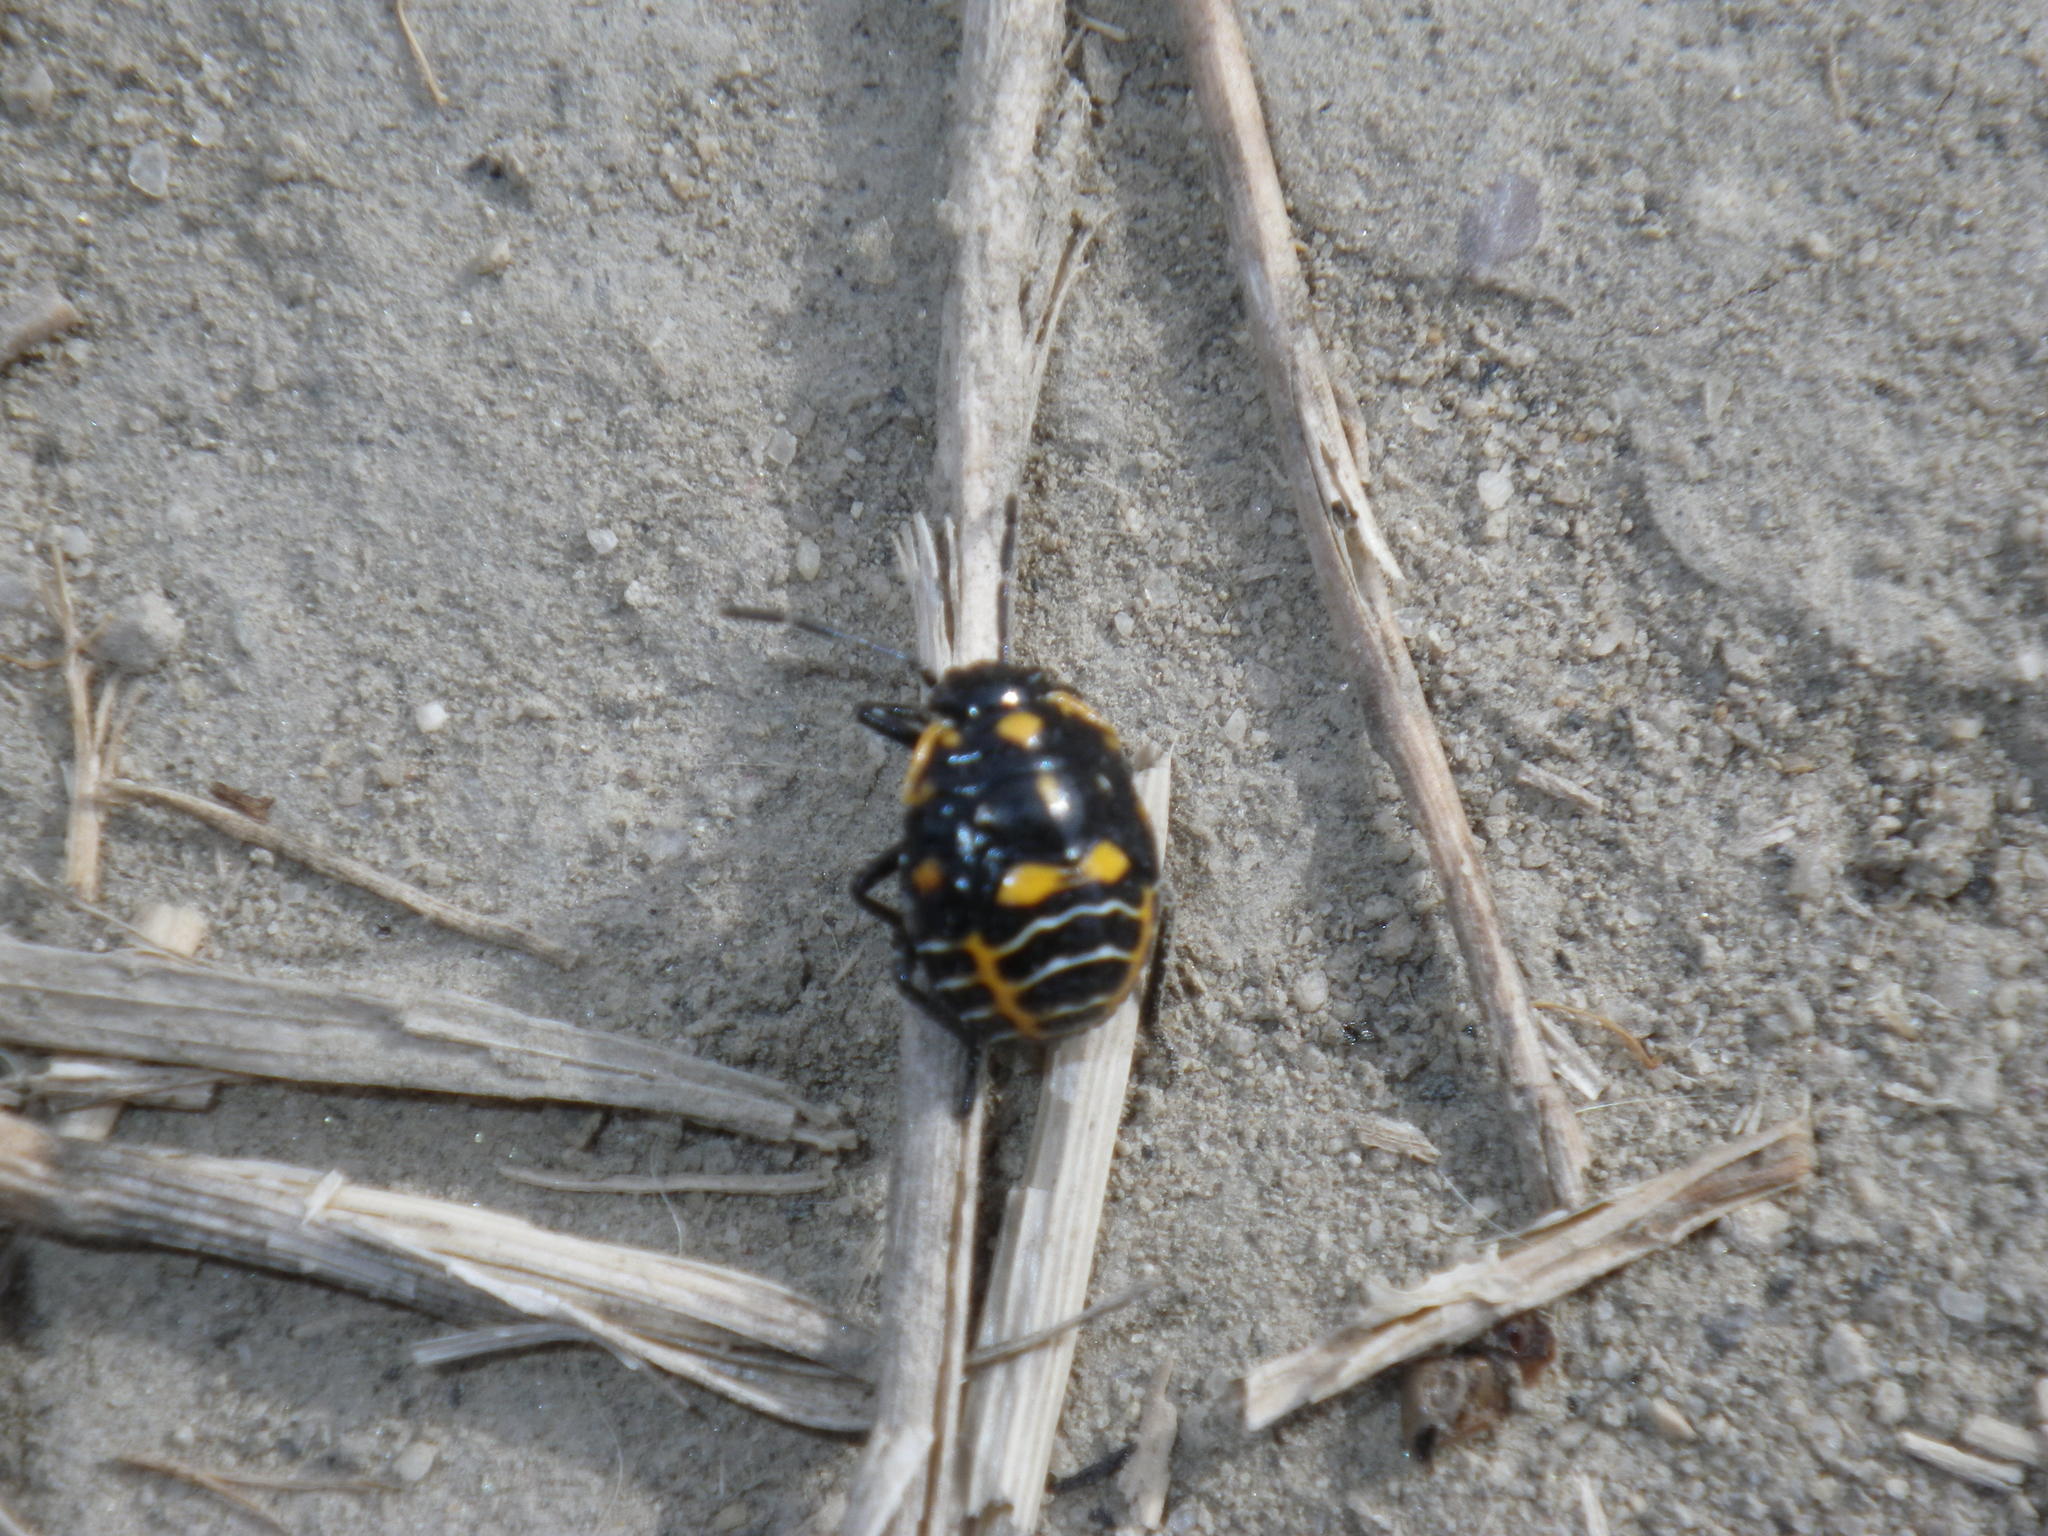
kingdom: Animalia
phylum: Arthropoda
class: Insecta
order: Hemiptera
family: Pentatomidae
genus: Murgantia
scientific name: Murgantia histrionica
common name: Harlequin bug
